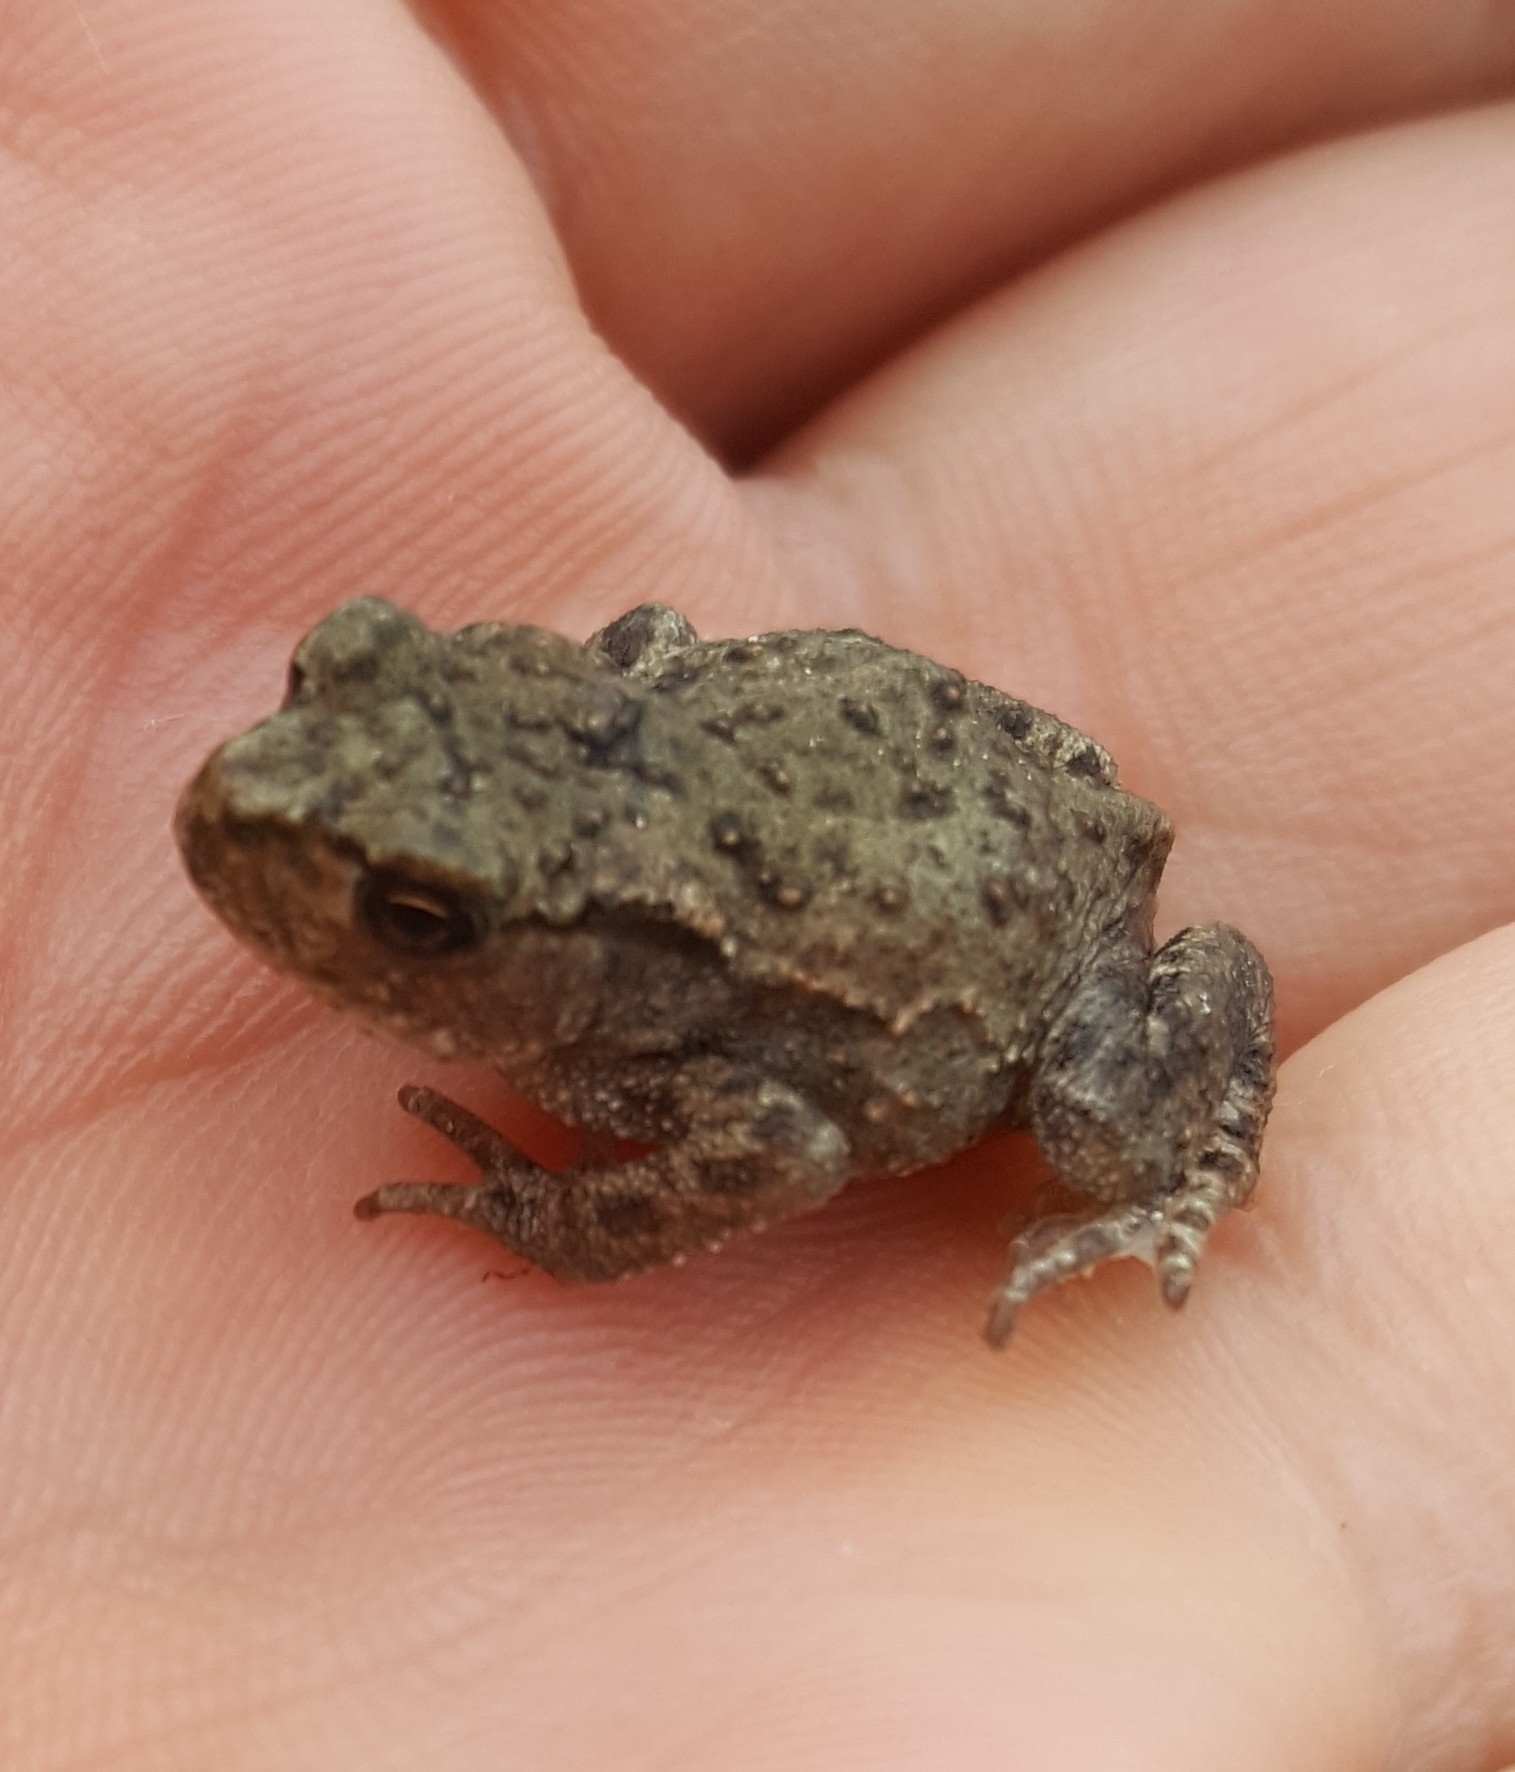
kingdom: Animalia
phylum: Chordata
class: Amphibia
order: Anura
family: Bufonidae
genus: Bufo
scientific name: Bufo bufo
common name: Common toad
